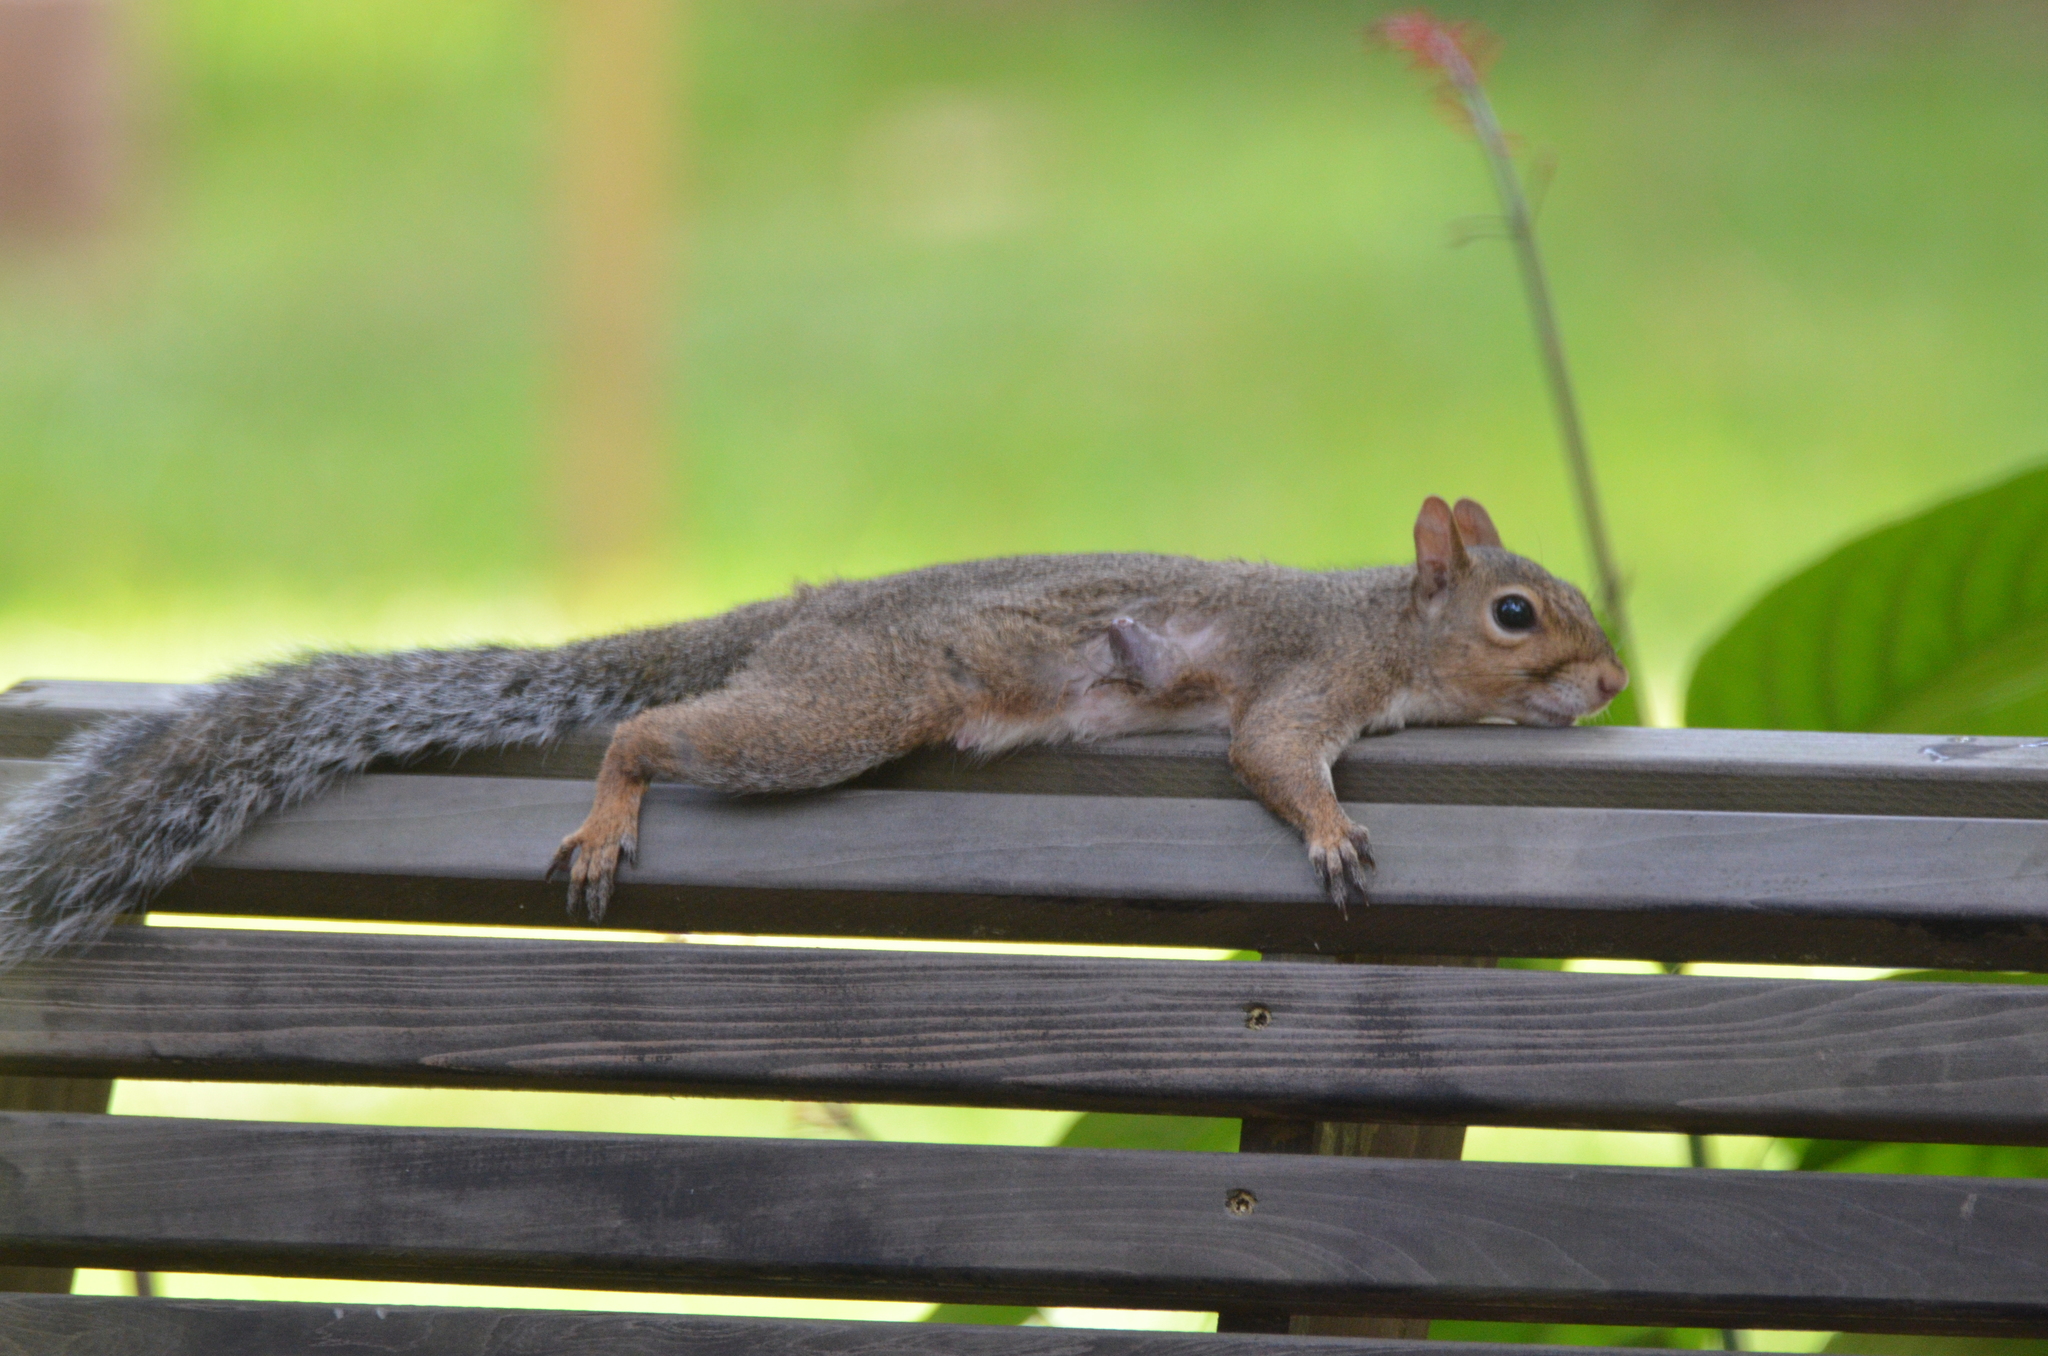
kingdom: Animalia
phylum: Chordata
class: Mammalia
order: Rodentia
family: Sciuridae
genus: Sciurus
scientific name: Sciurus carolinensis
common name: Eastern gray squirrel
